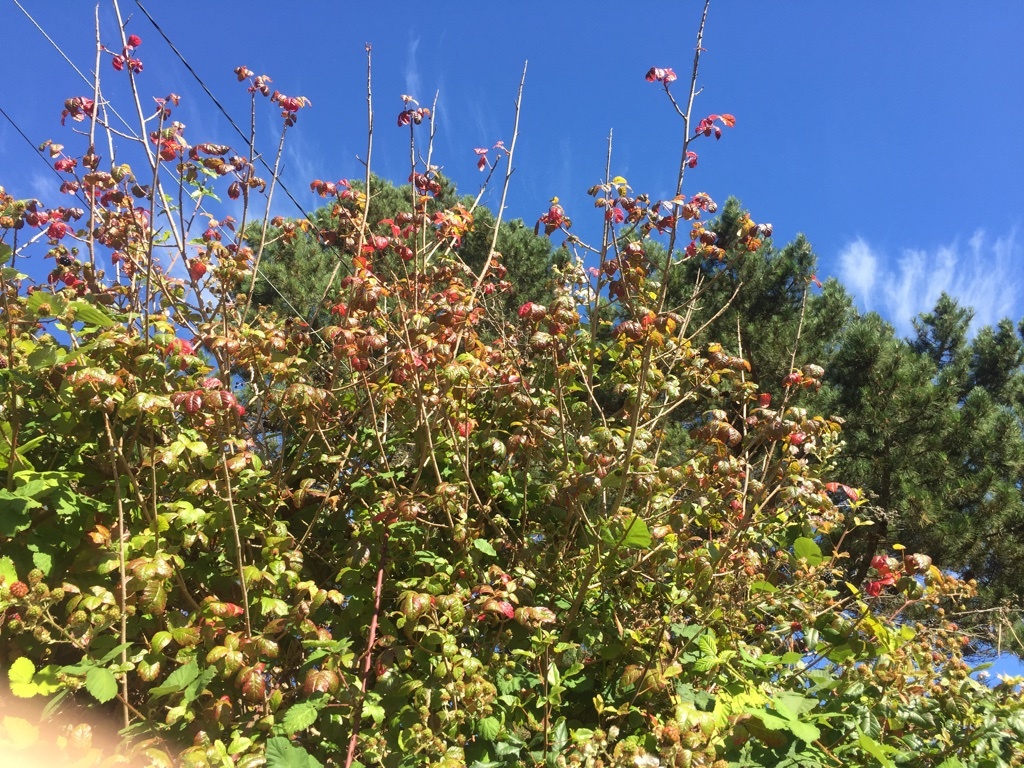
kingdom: Plantae
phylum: Tracheophyta
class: Magnoliopsida
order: Sapindales
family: Anacardiaceae
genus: Toxicodendron
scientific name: Toxicodendron diversilobum
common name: Pacific poison-oak
